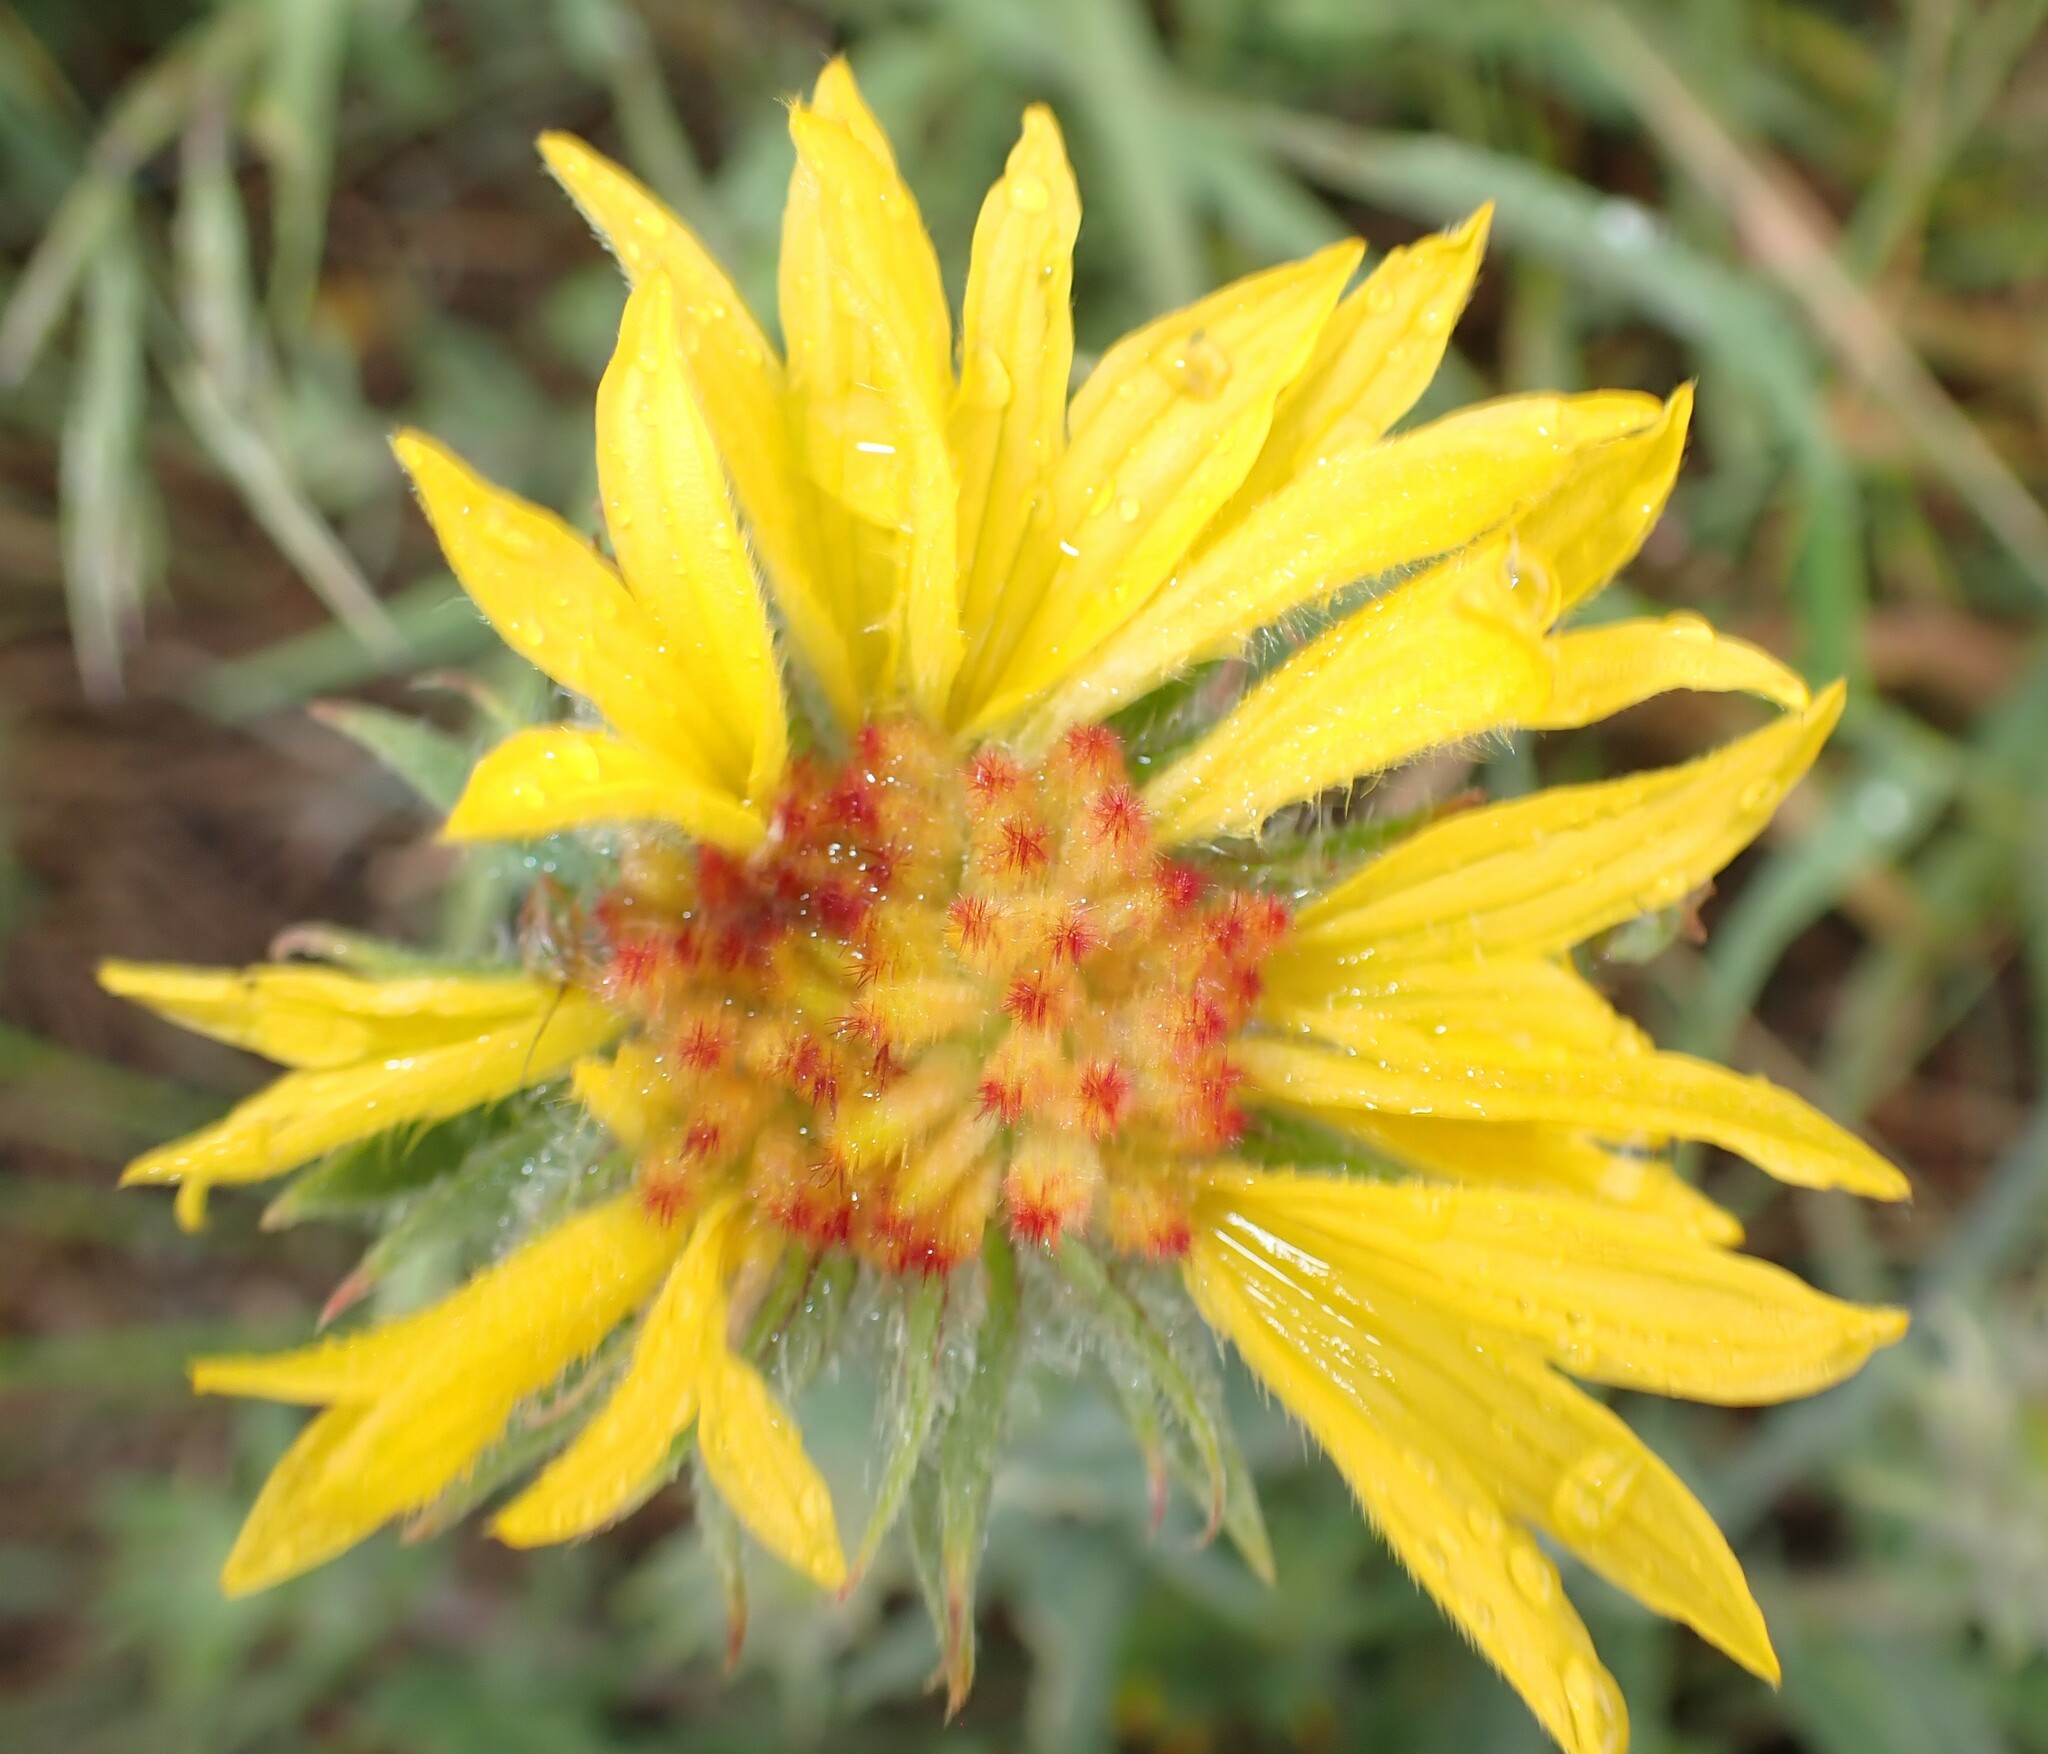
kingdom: Plantae
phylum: Tracheophyta
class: Magnoliopsida
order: Asterales
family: Asteraceae
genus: Gaillardia
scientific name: Gaillardia aristata
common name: Blanket-flower
